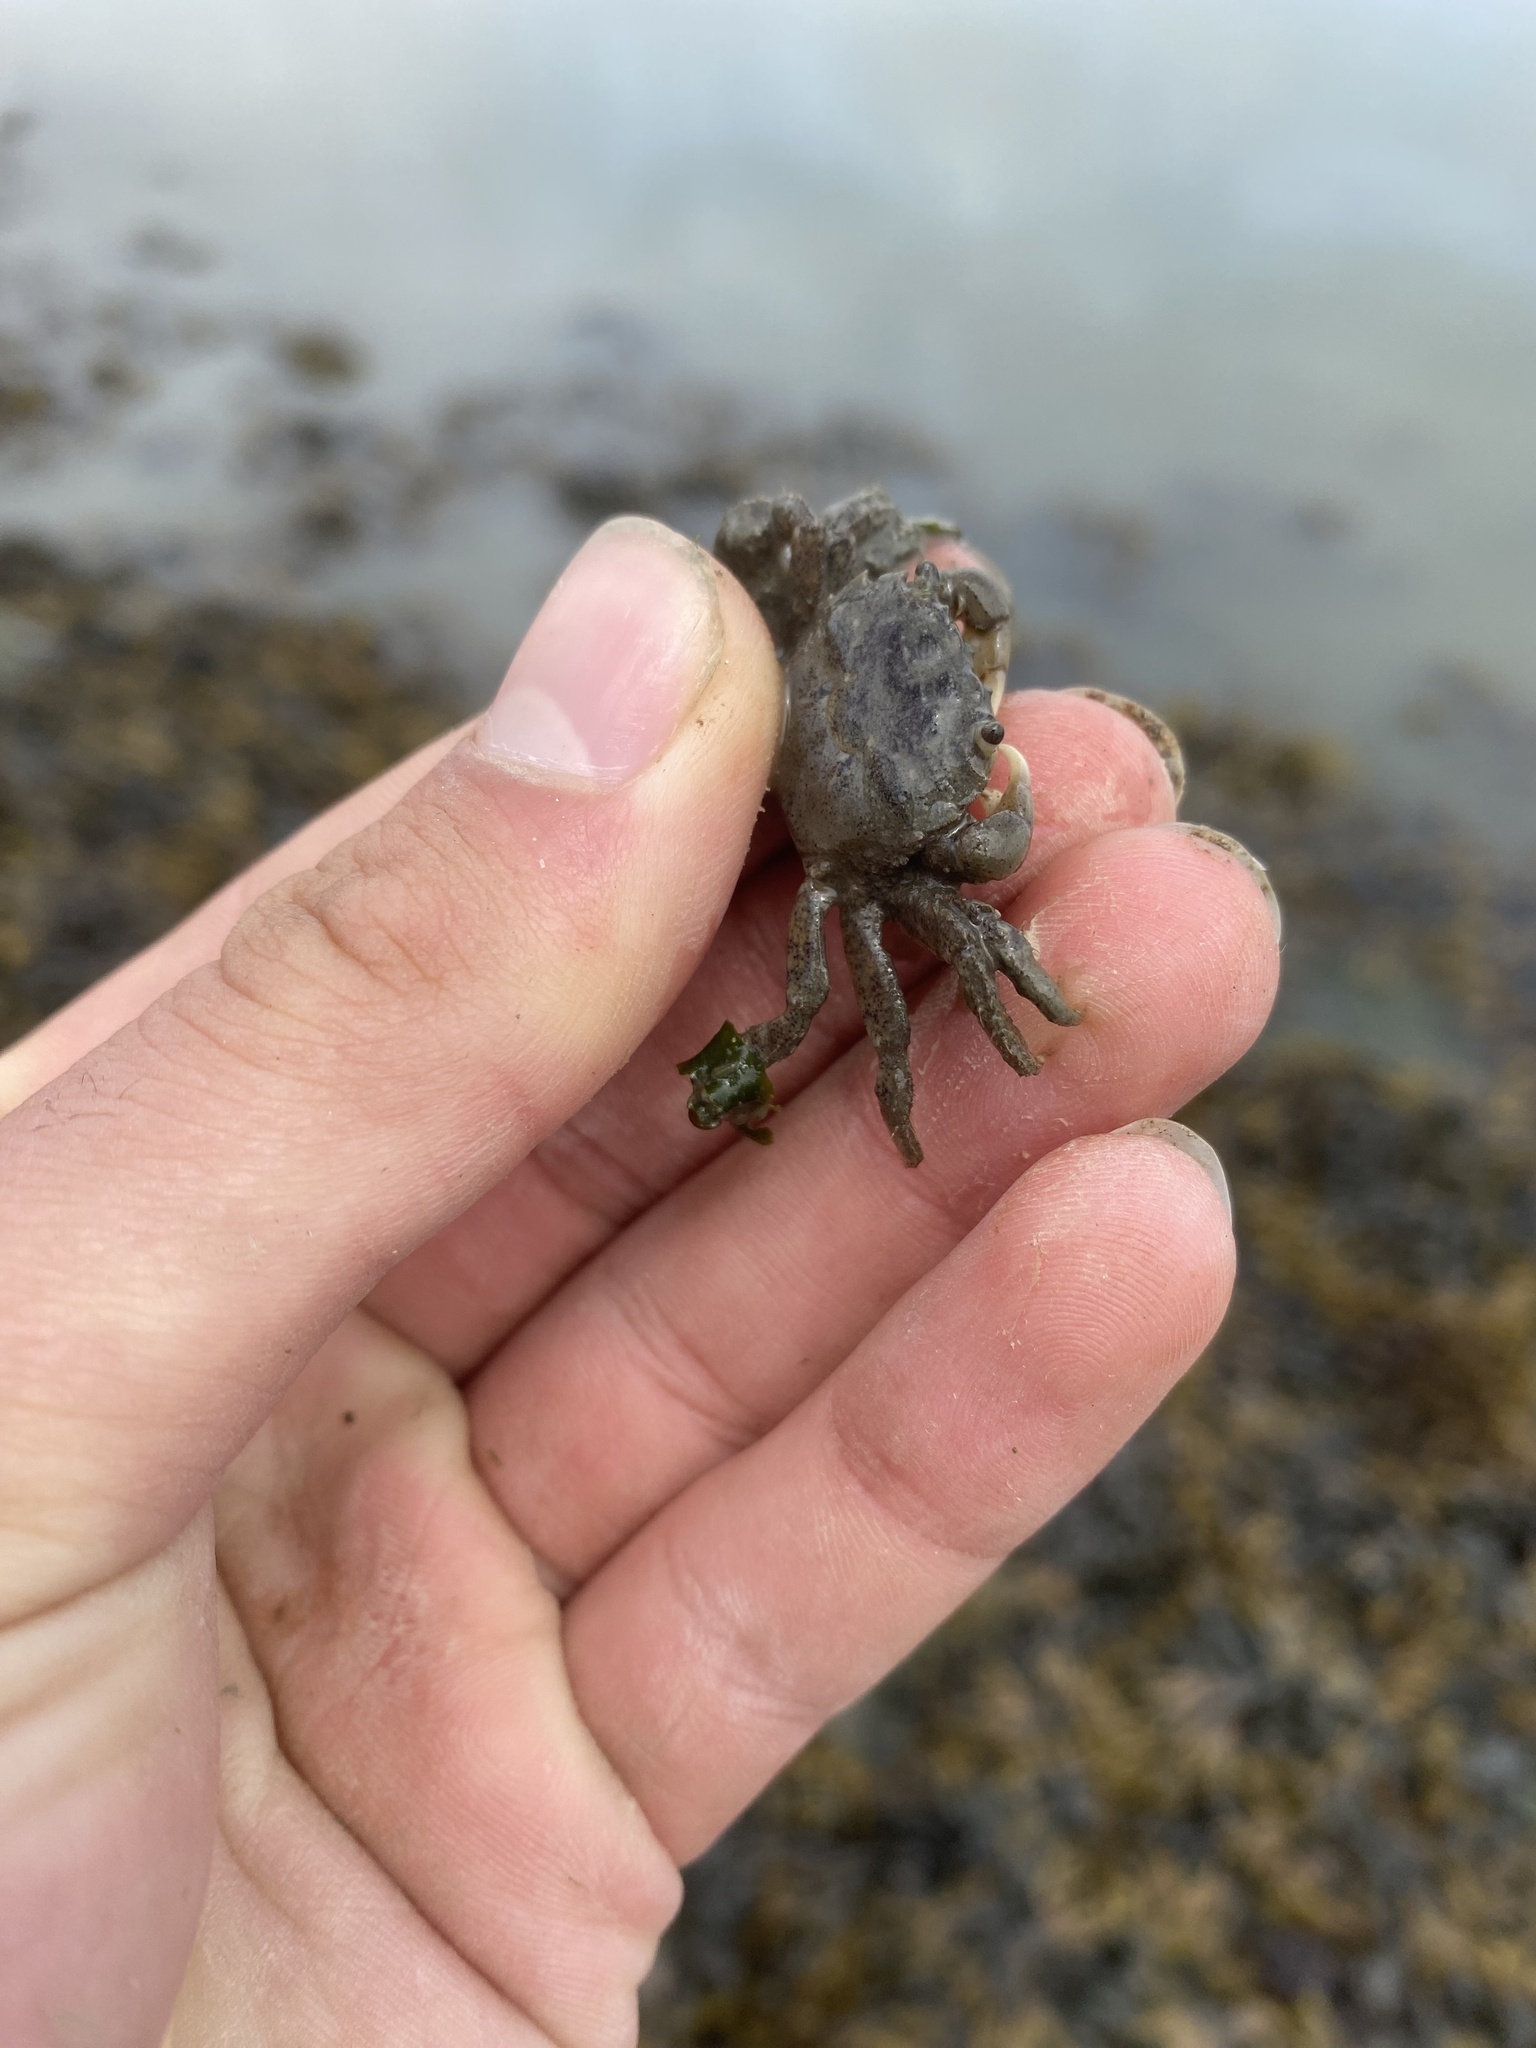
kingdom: Animalia
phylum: Arthropoda
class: Malacostraca
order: Decapoda
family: Varunidae
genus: Hemigrapsus
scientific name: Hemigrapsus oregonensis
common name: Yellow shore crab
